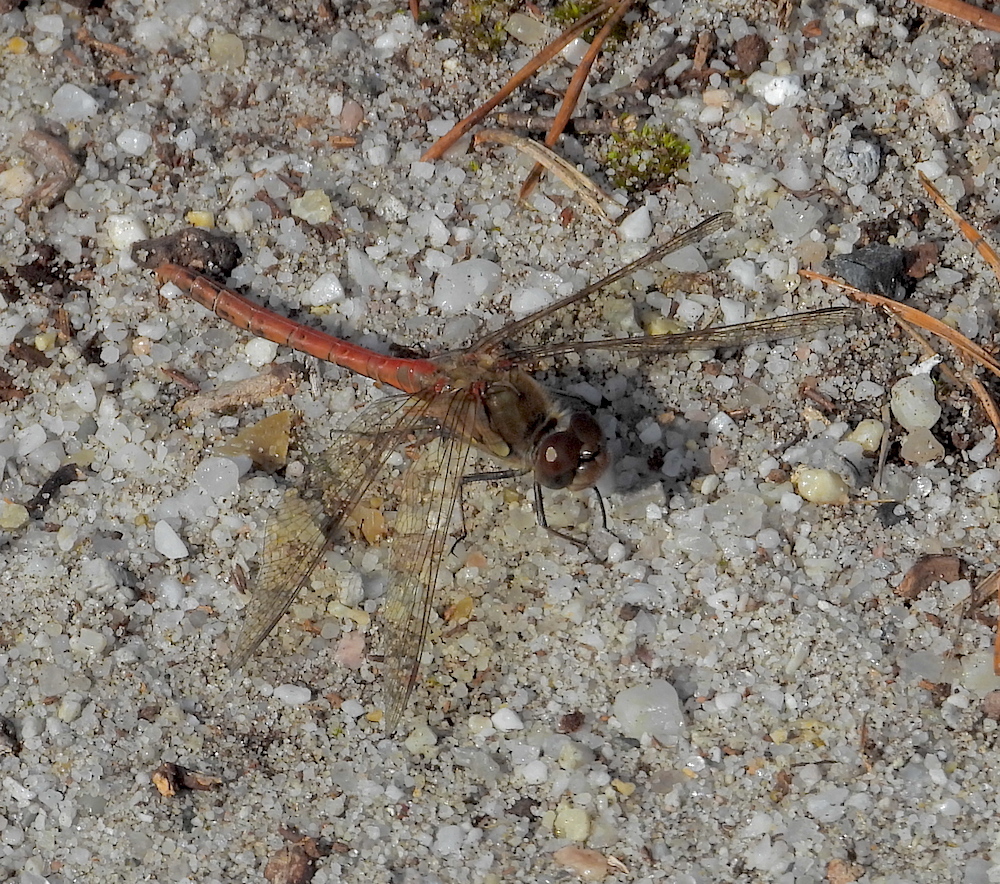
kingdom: Animalia
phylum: Arthropoda
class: Insecta
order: Odonata
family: Libellulidae
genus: Sympetrum
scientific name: Sympetrum striolatum
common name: Common darter
